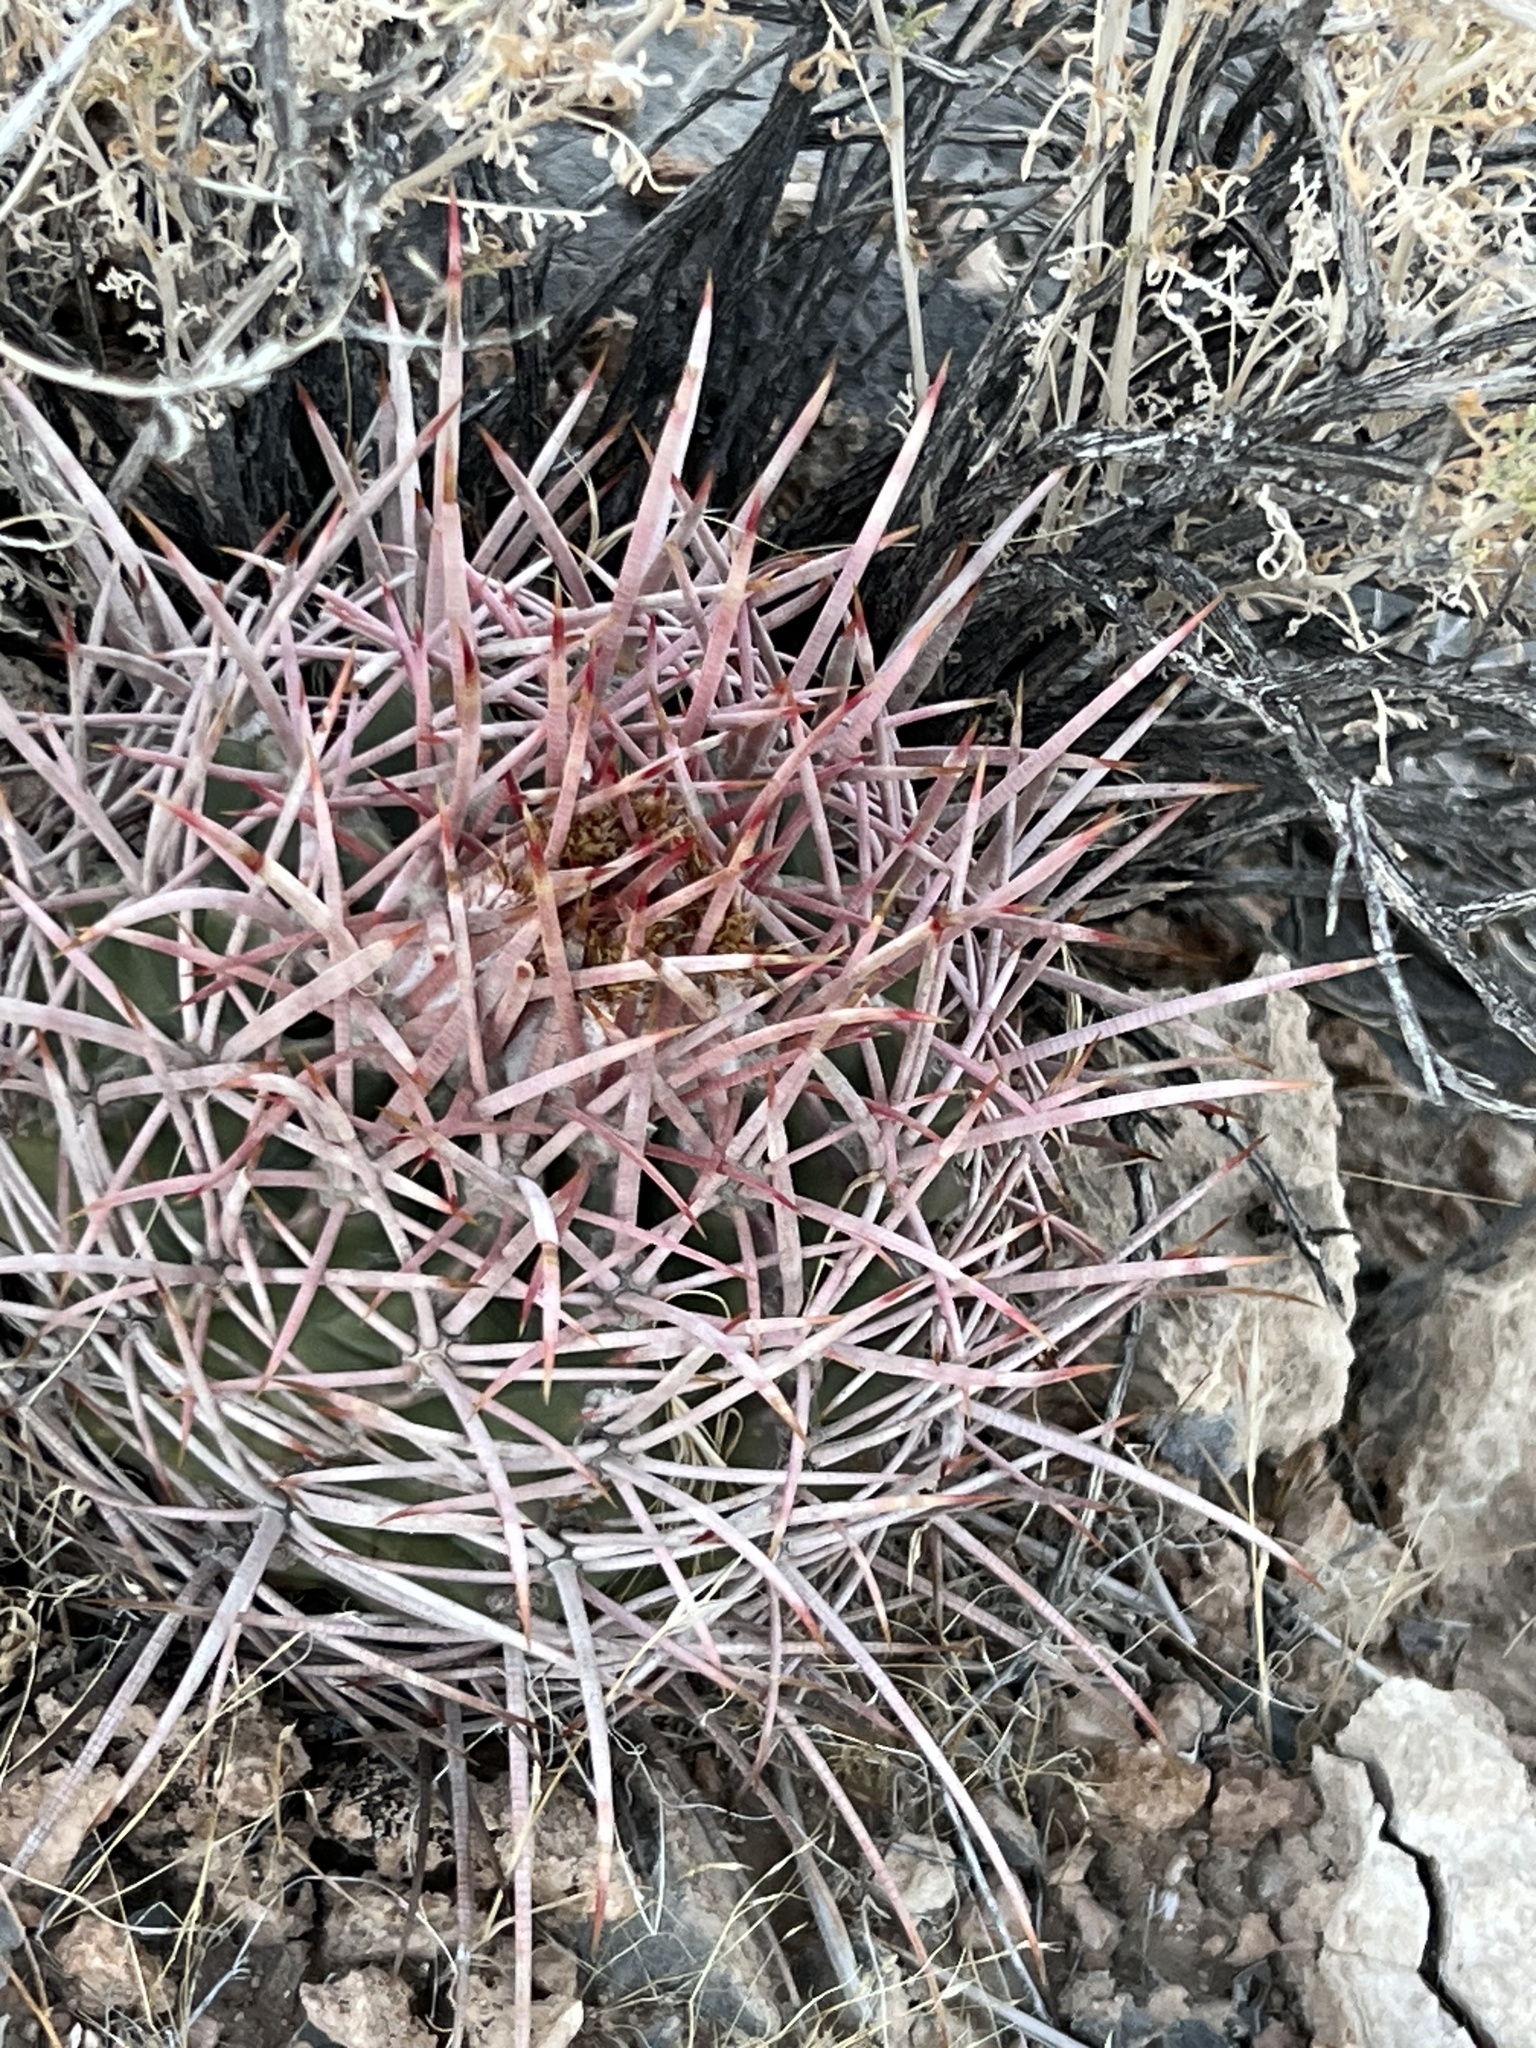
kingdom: Plantae
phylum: Tracheophyta
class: Magnoliopsida
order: Caryophyllales
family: Cactaceae
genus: Echinocactus
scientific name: Echinocactus polycephalus
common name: Cottontop cactus
